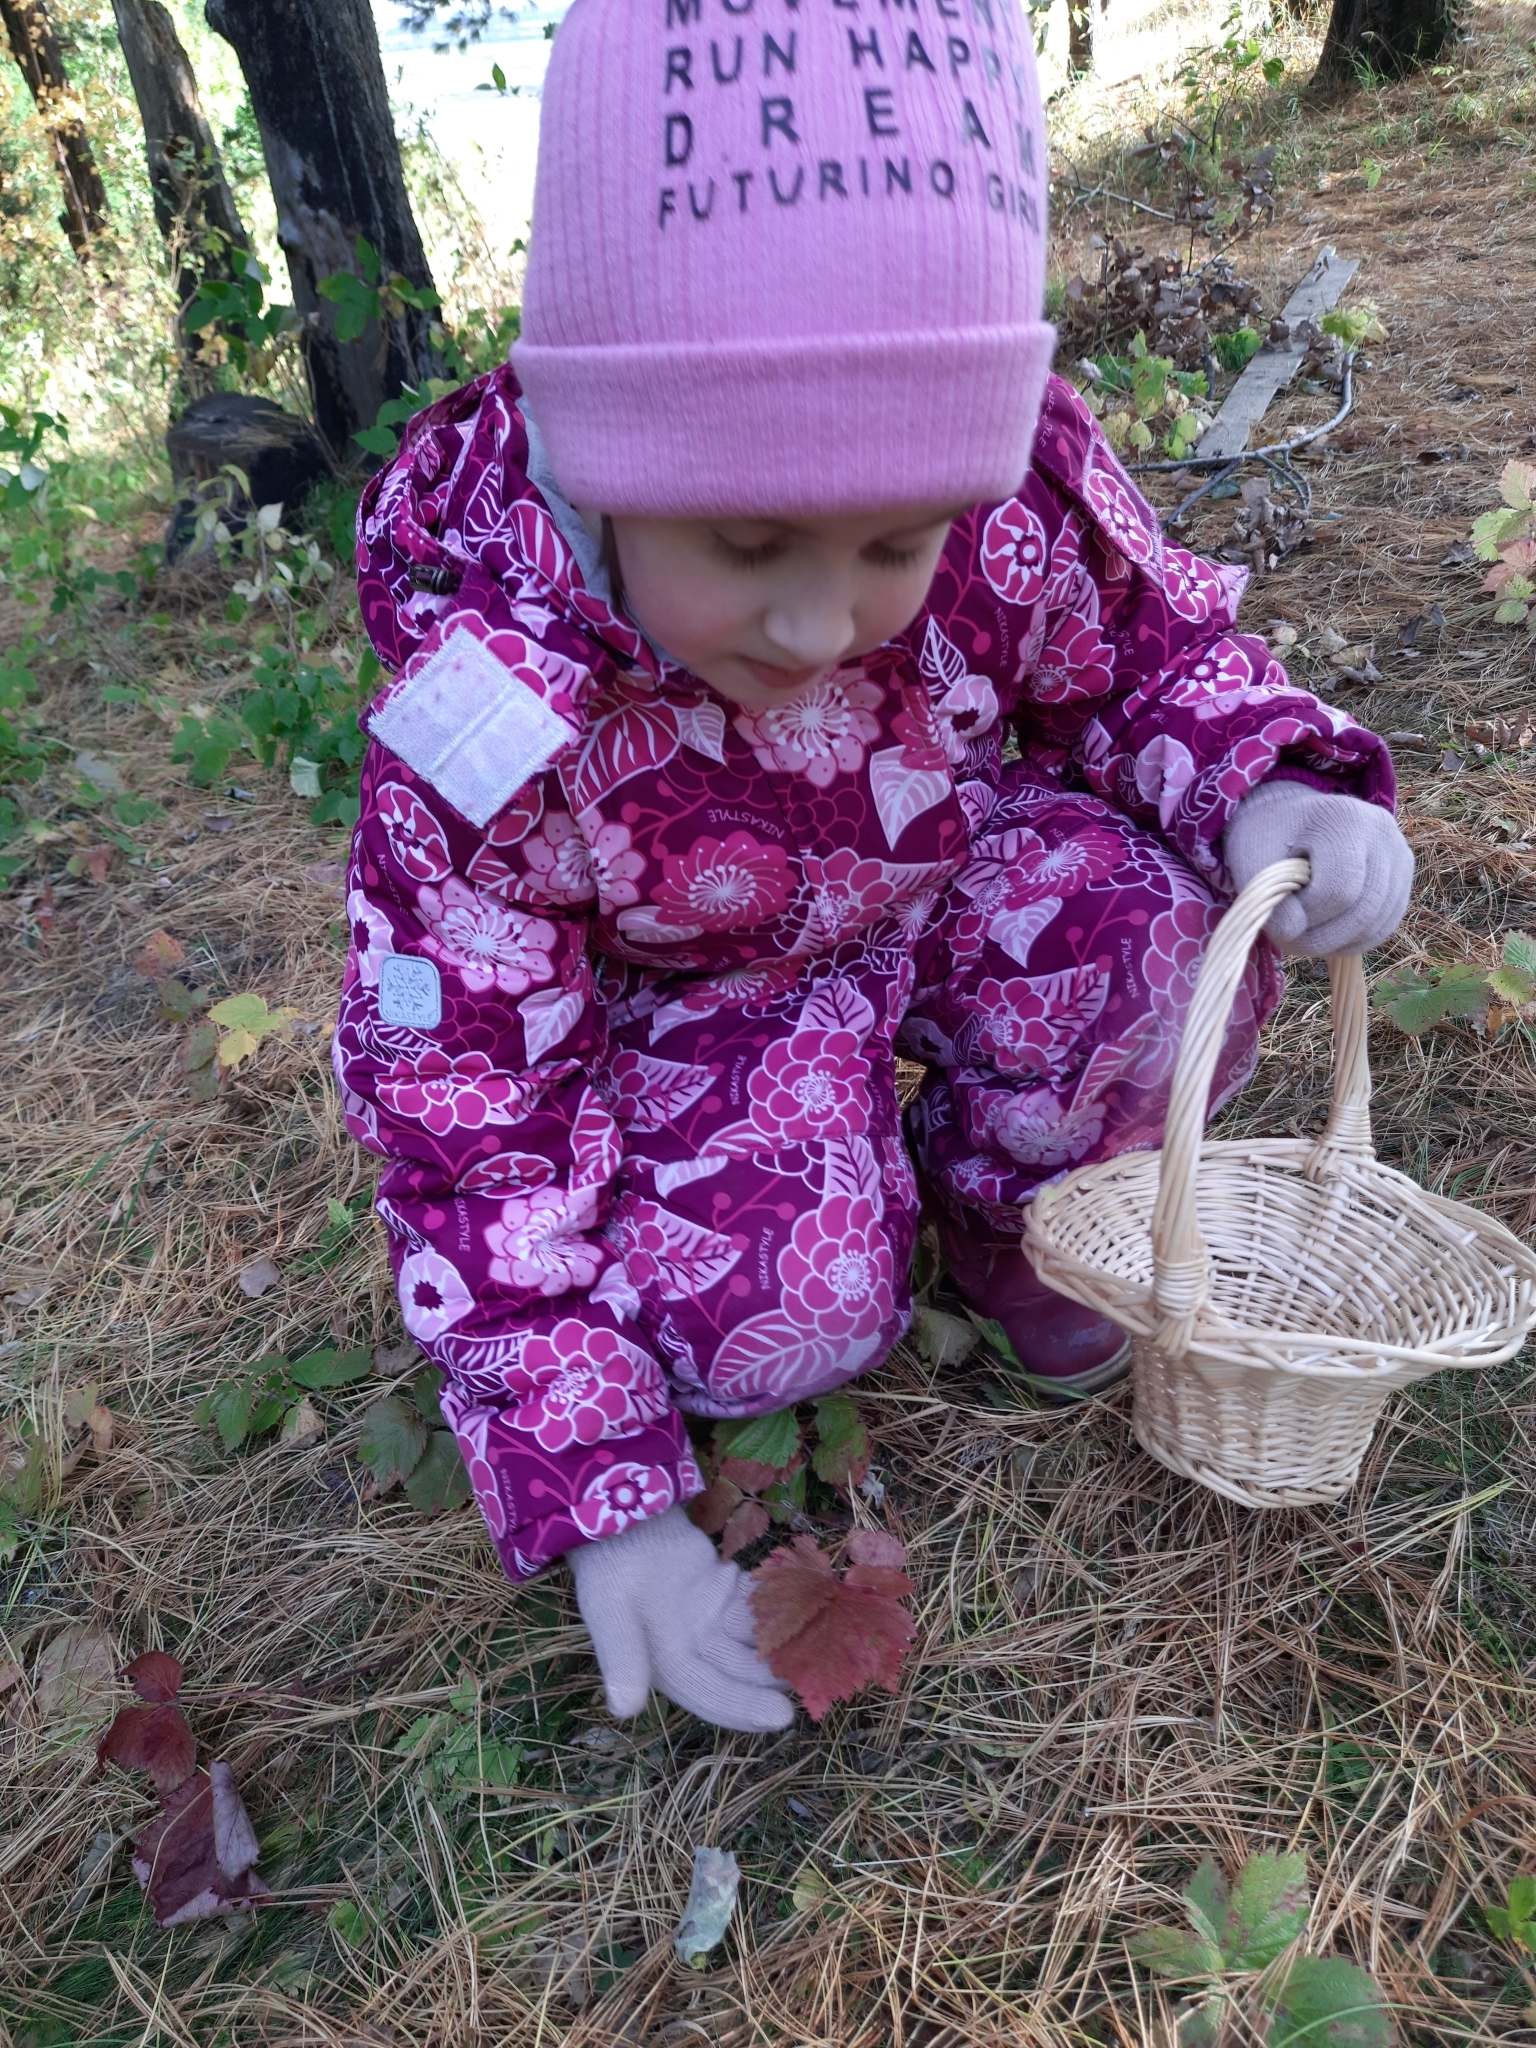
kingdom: Plantae
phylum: Tracheophyta
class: Magnoliopsida
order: Rosales
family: Rosaceae
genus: Rubus
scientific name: Rubus saxatilis
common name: Stone bramble
